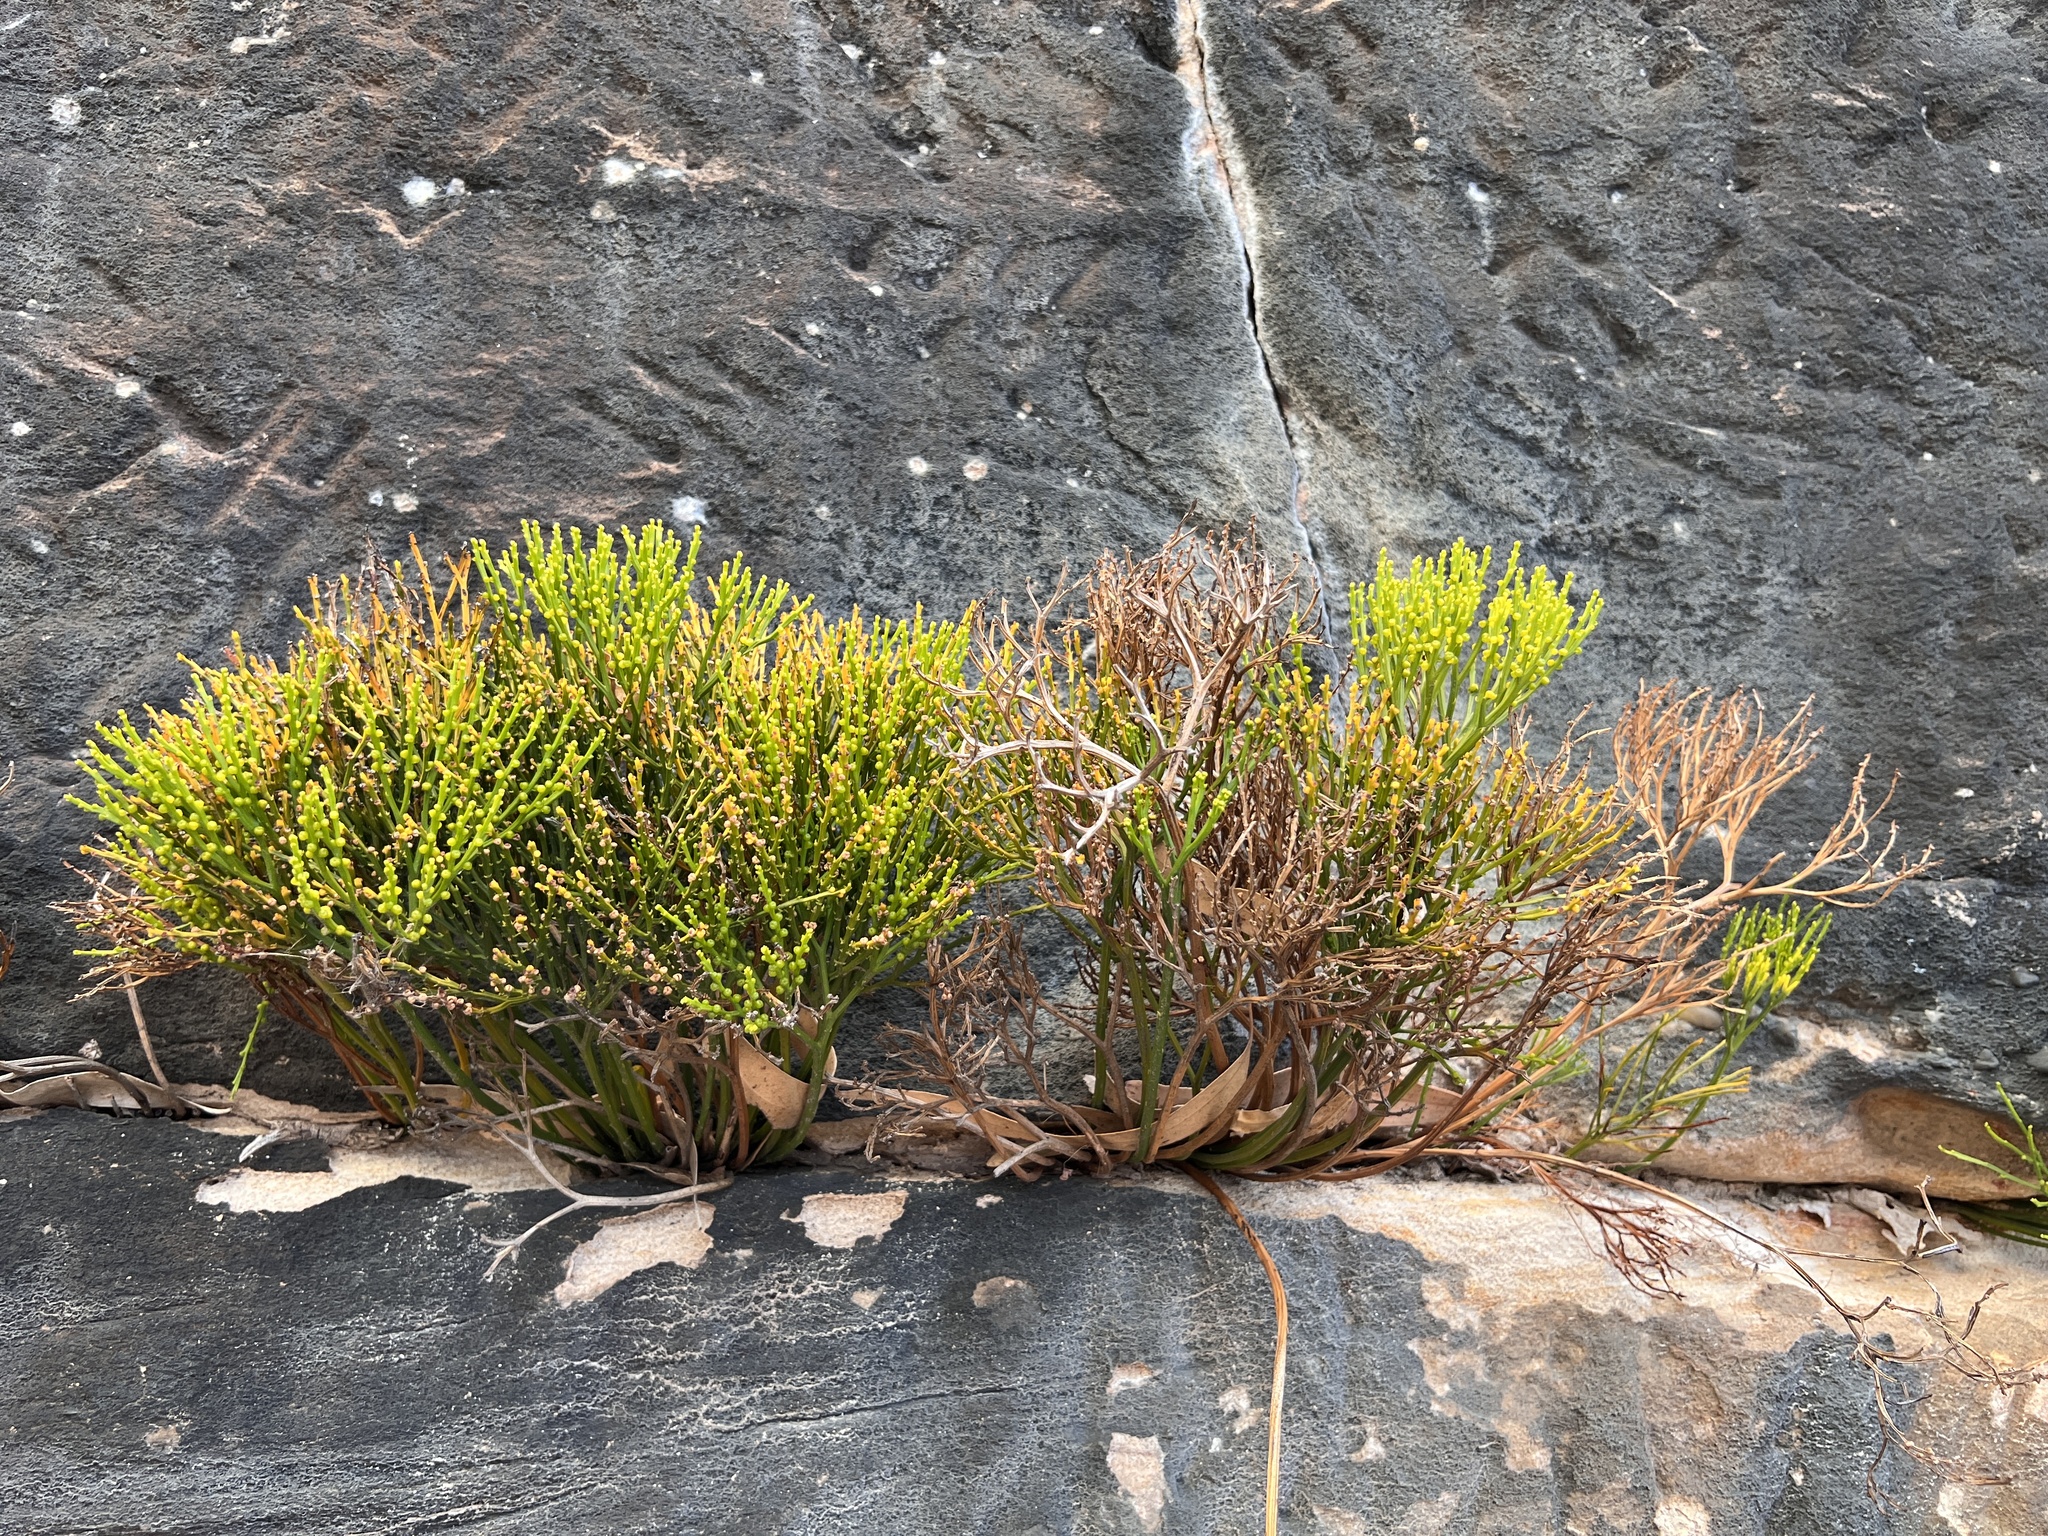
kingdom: Plantae
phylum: Tracheophyta
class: Polypodiopsida
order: Psilotales
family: Psilotaceae
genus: Psilotum
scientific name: Psilotum nudum
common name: Skeleton fork fern
